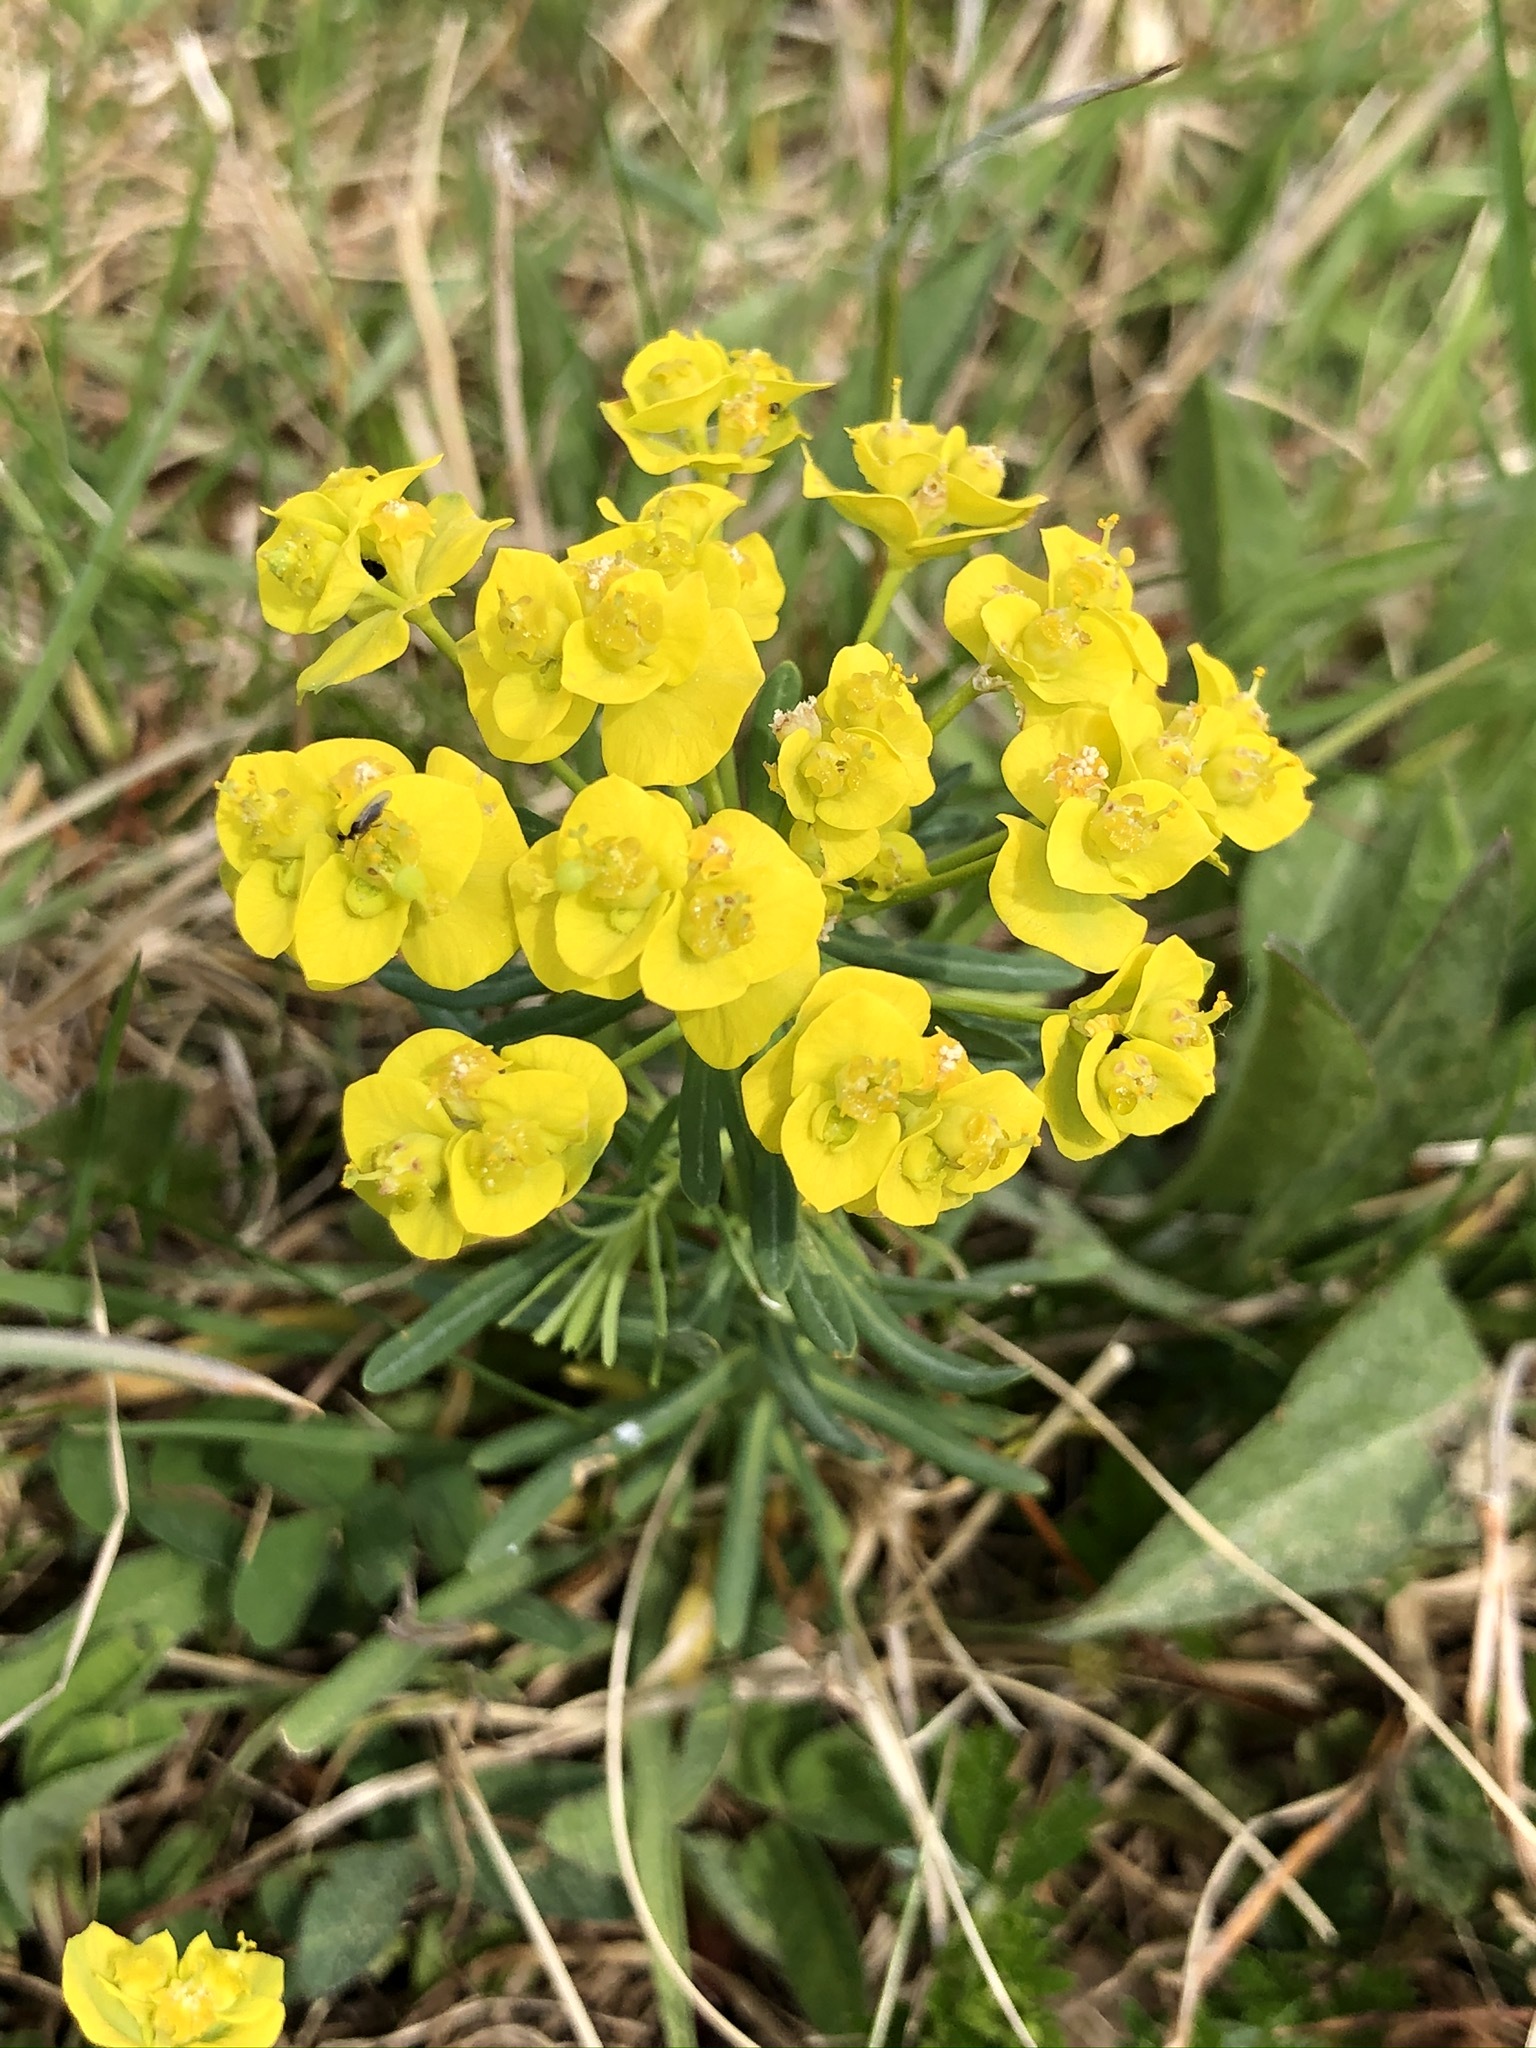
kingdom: Plantae
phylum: Tracheophyta
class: Magnoliopsida
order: Malpighiales
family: Euphorbiaceae
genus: Euphorbia
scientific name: Euphorbia cyparissias
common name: Cypress spurge
